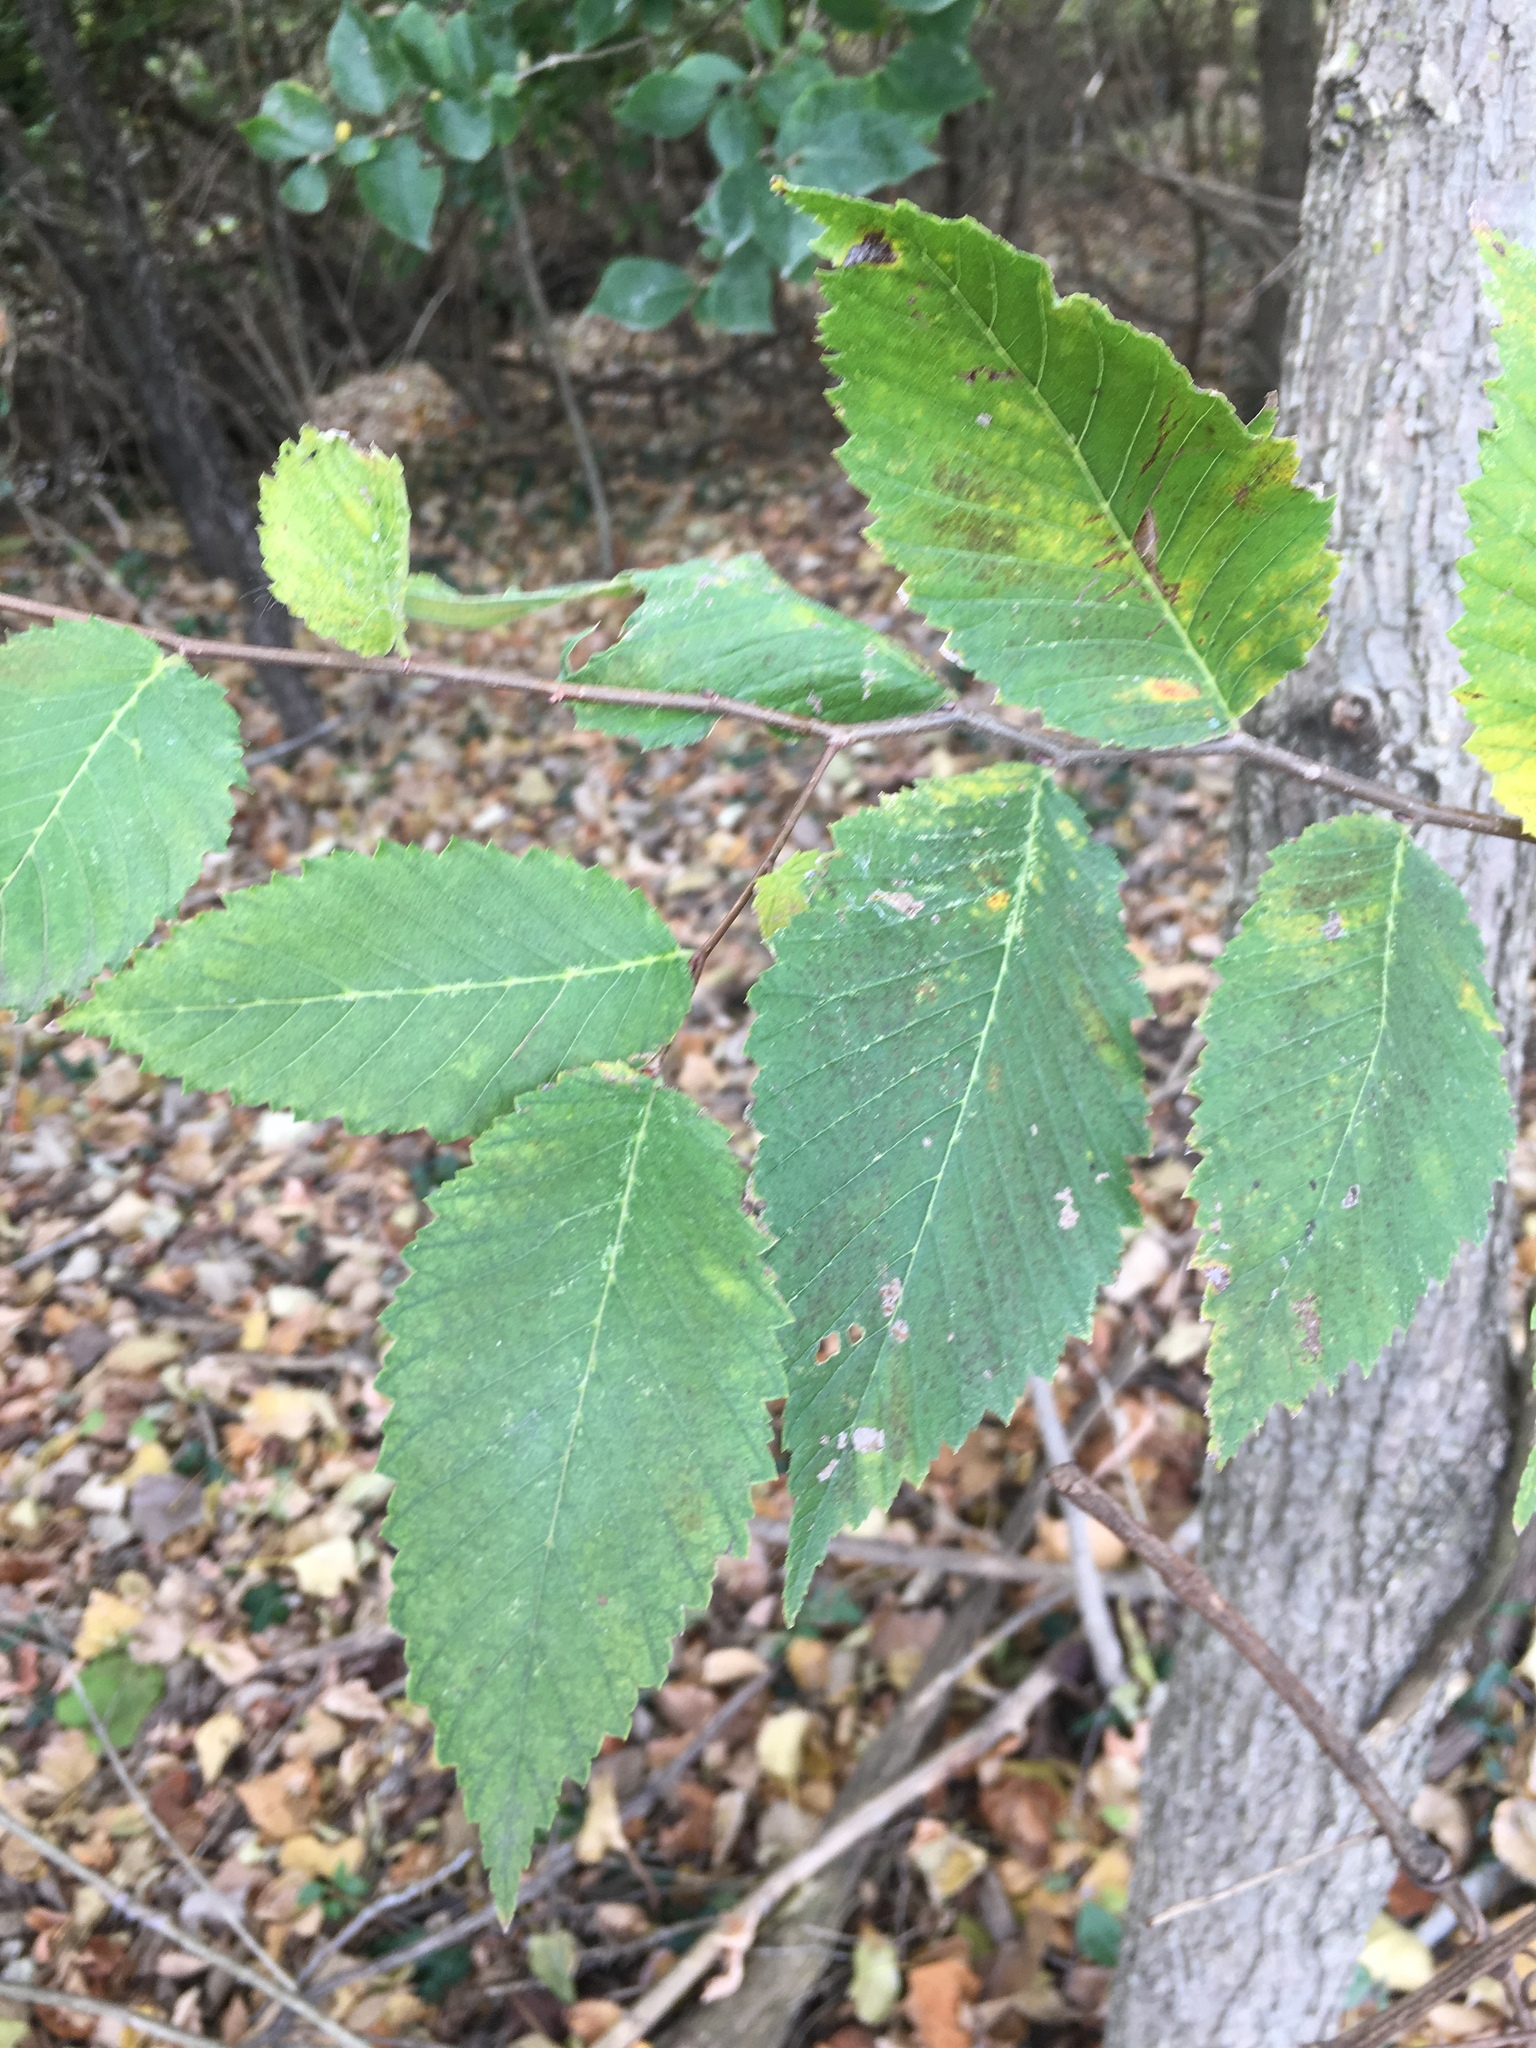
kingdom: Plantae
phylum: Tracheophyta
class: Magnoliopsida
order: Rosales
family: Ulmaceae
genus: Ulmus
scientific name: Ulmus rubra
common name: Slippery elm
